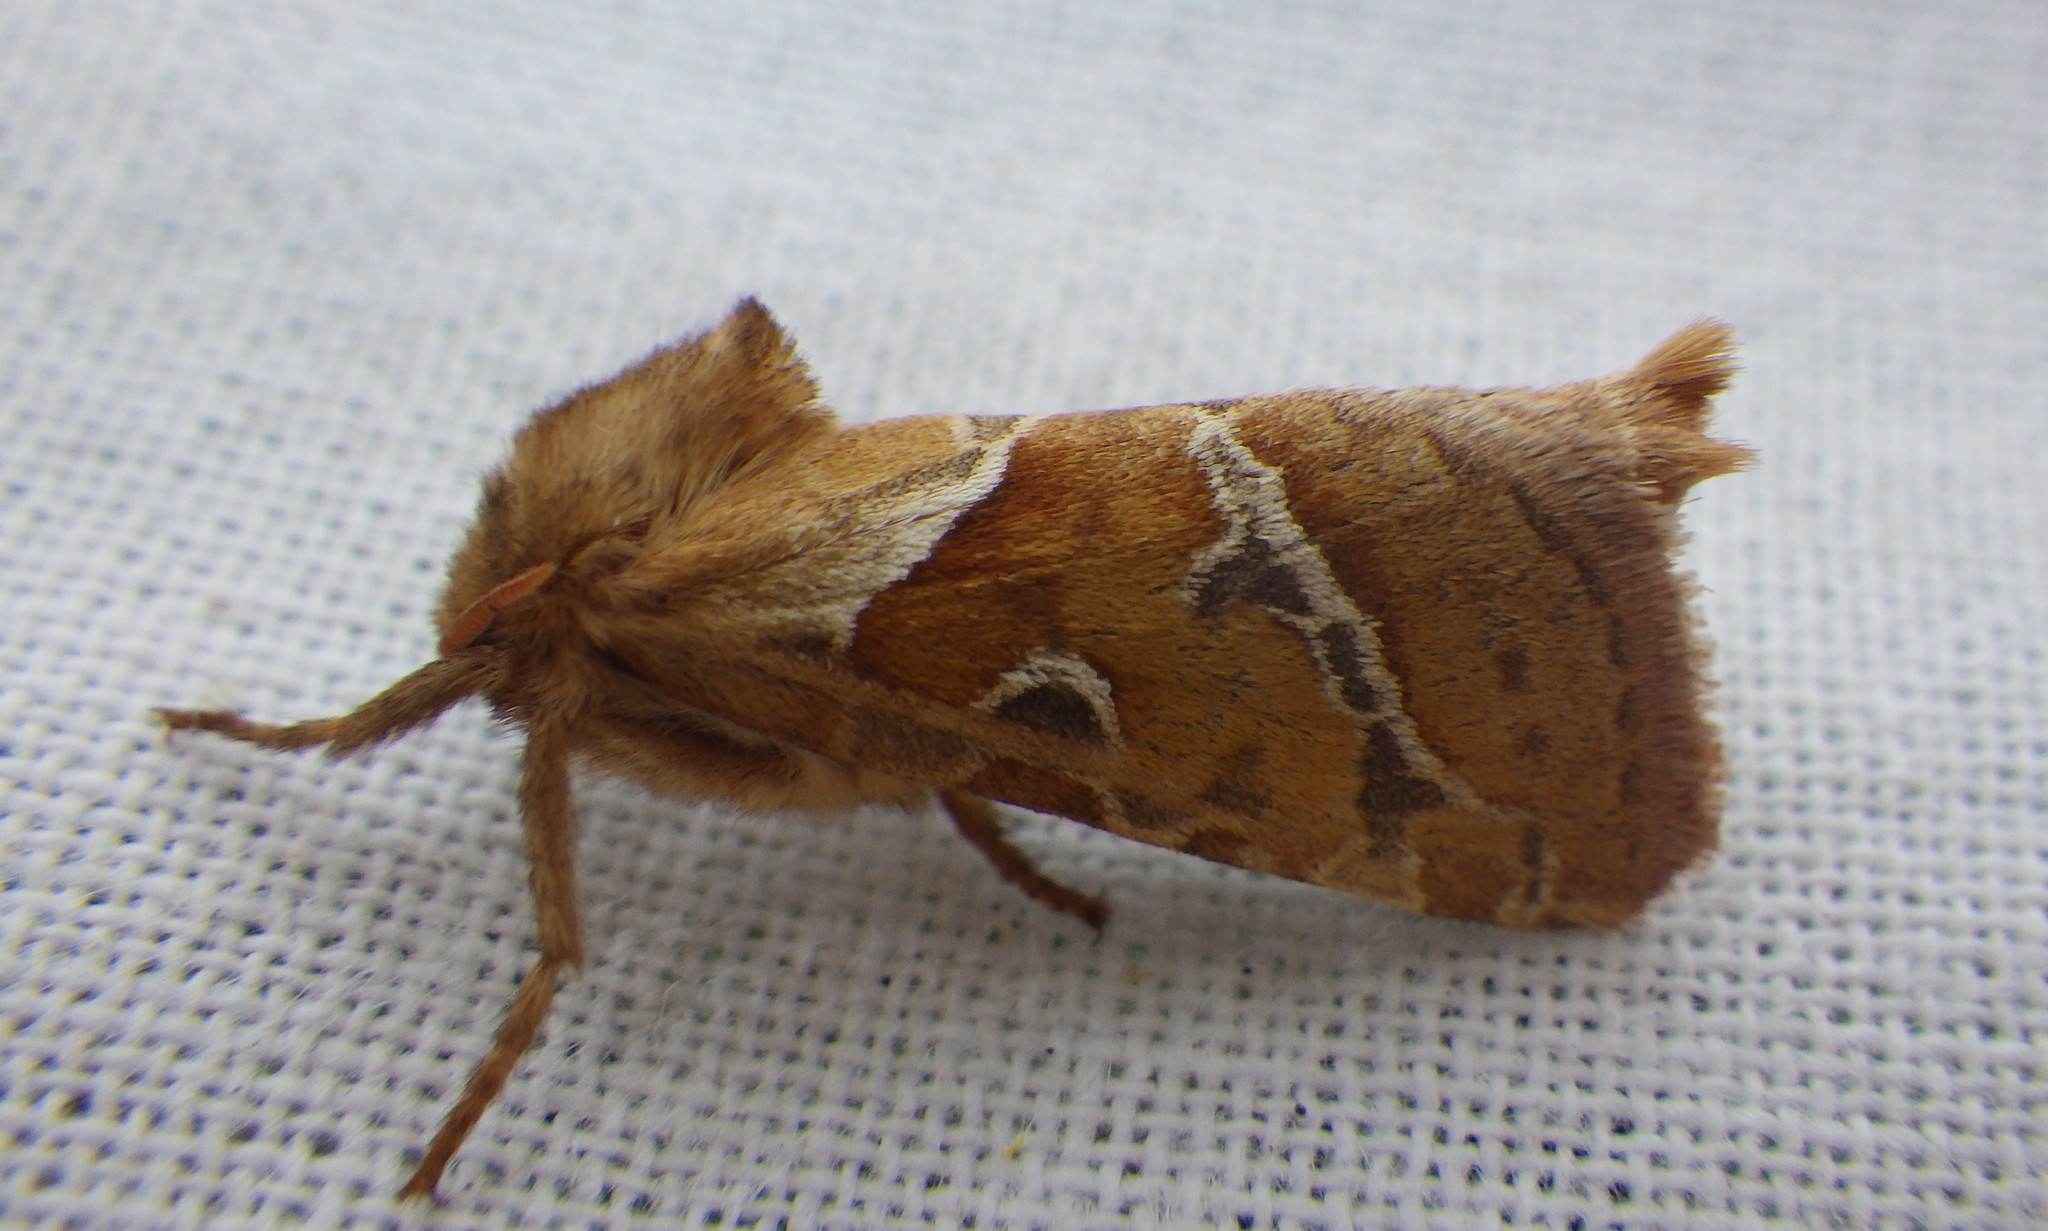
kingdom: Animalia
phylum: Arthropoda
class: Insecta
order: Lepidoptera
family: Hepialidae
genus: Triodia
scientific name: Triodia sylvina
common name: Orange swift
